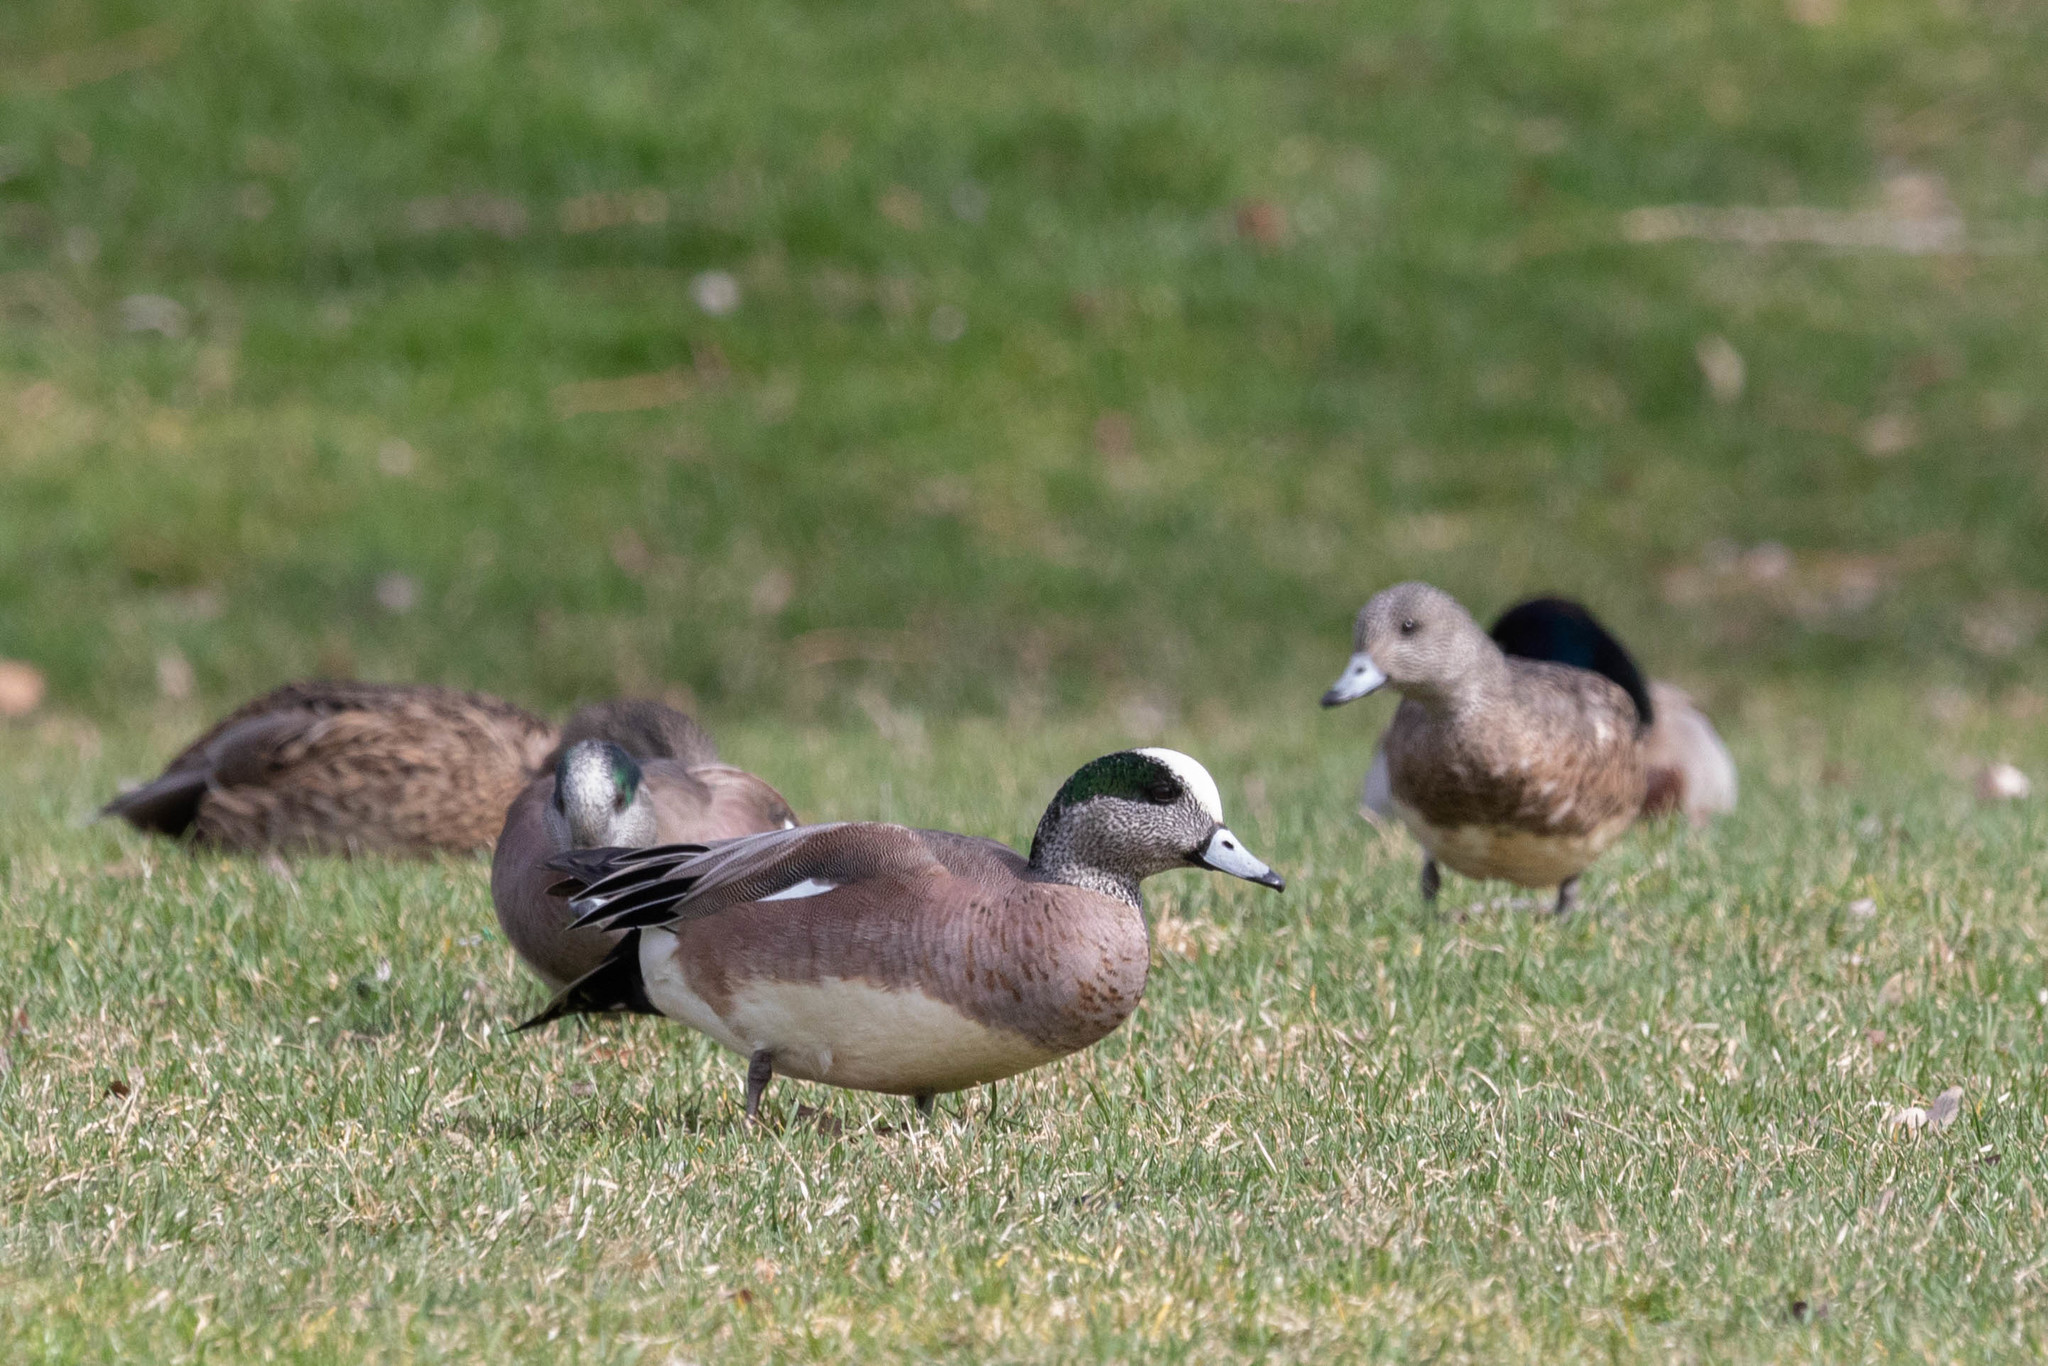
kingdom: Animalia
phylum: Chordata
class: Aves
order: Anseriformes
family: Anatidae
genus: Mareca
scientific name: Mareca americana
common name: American wigeon
